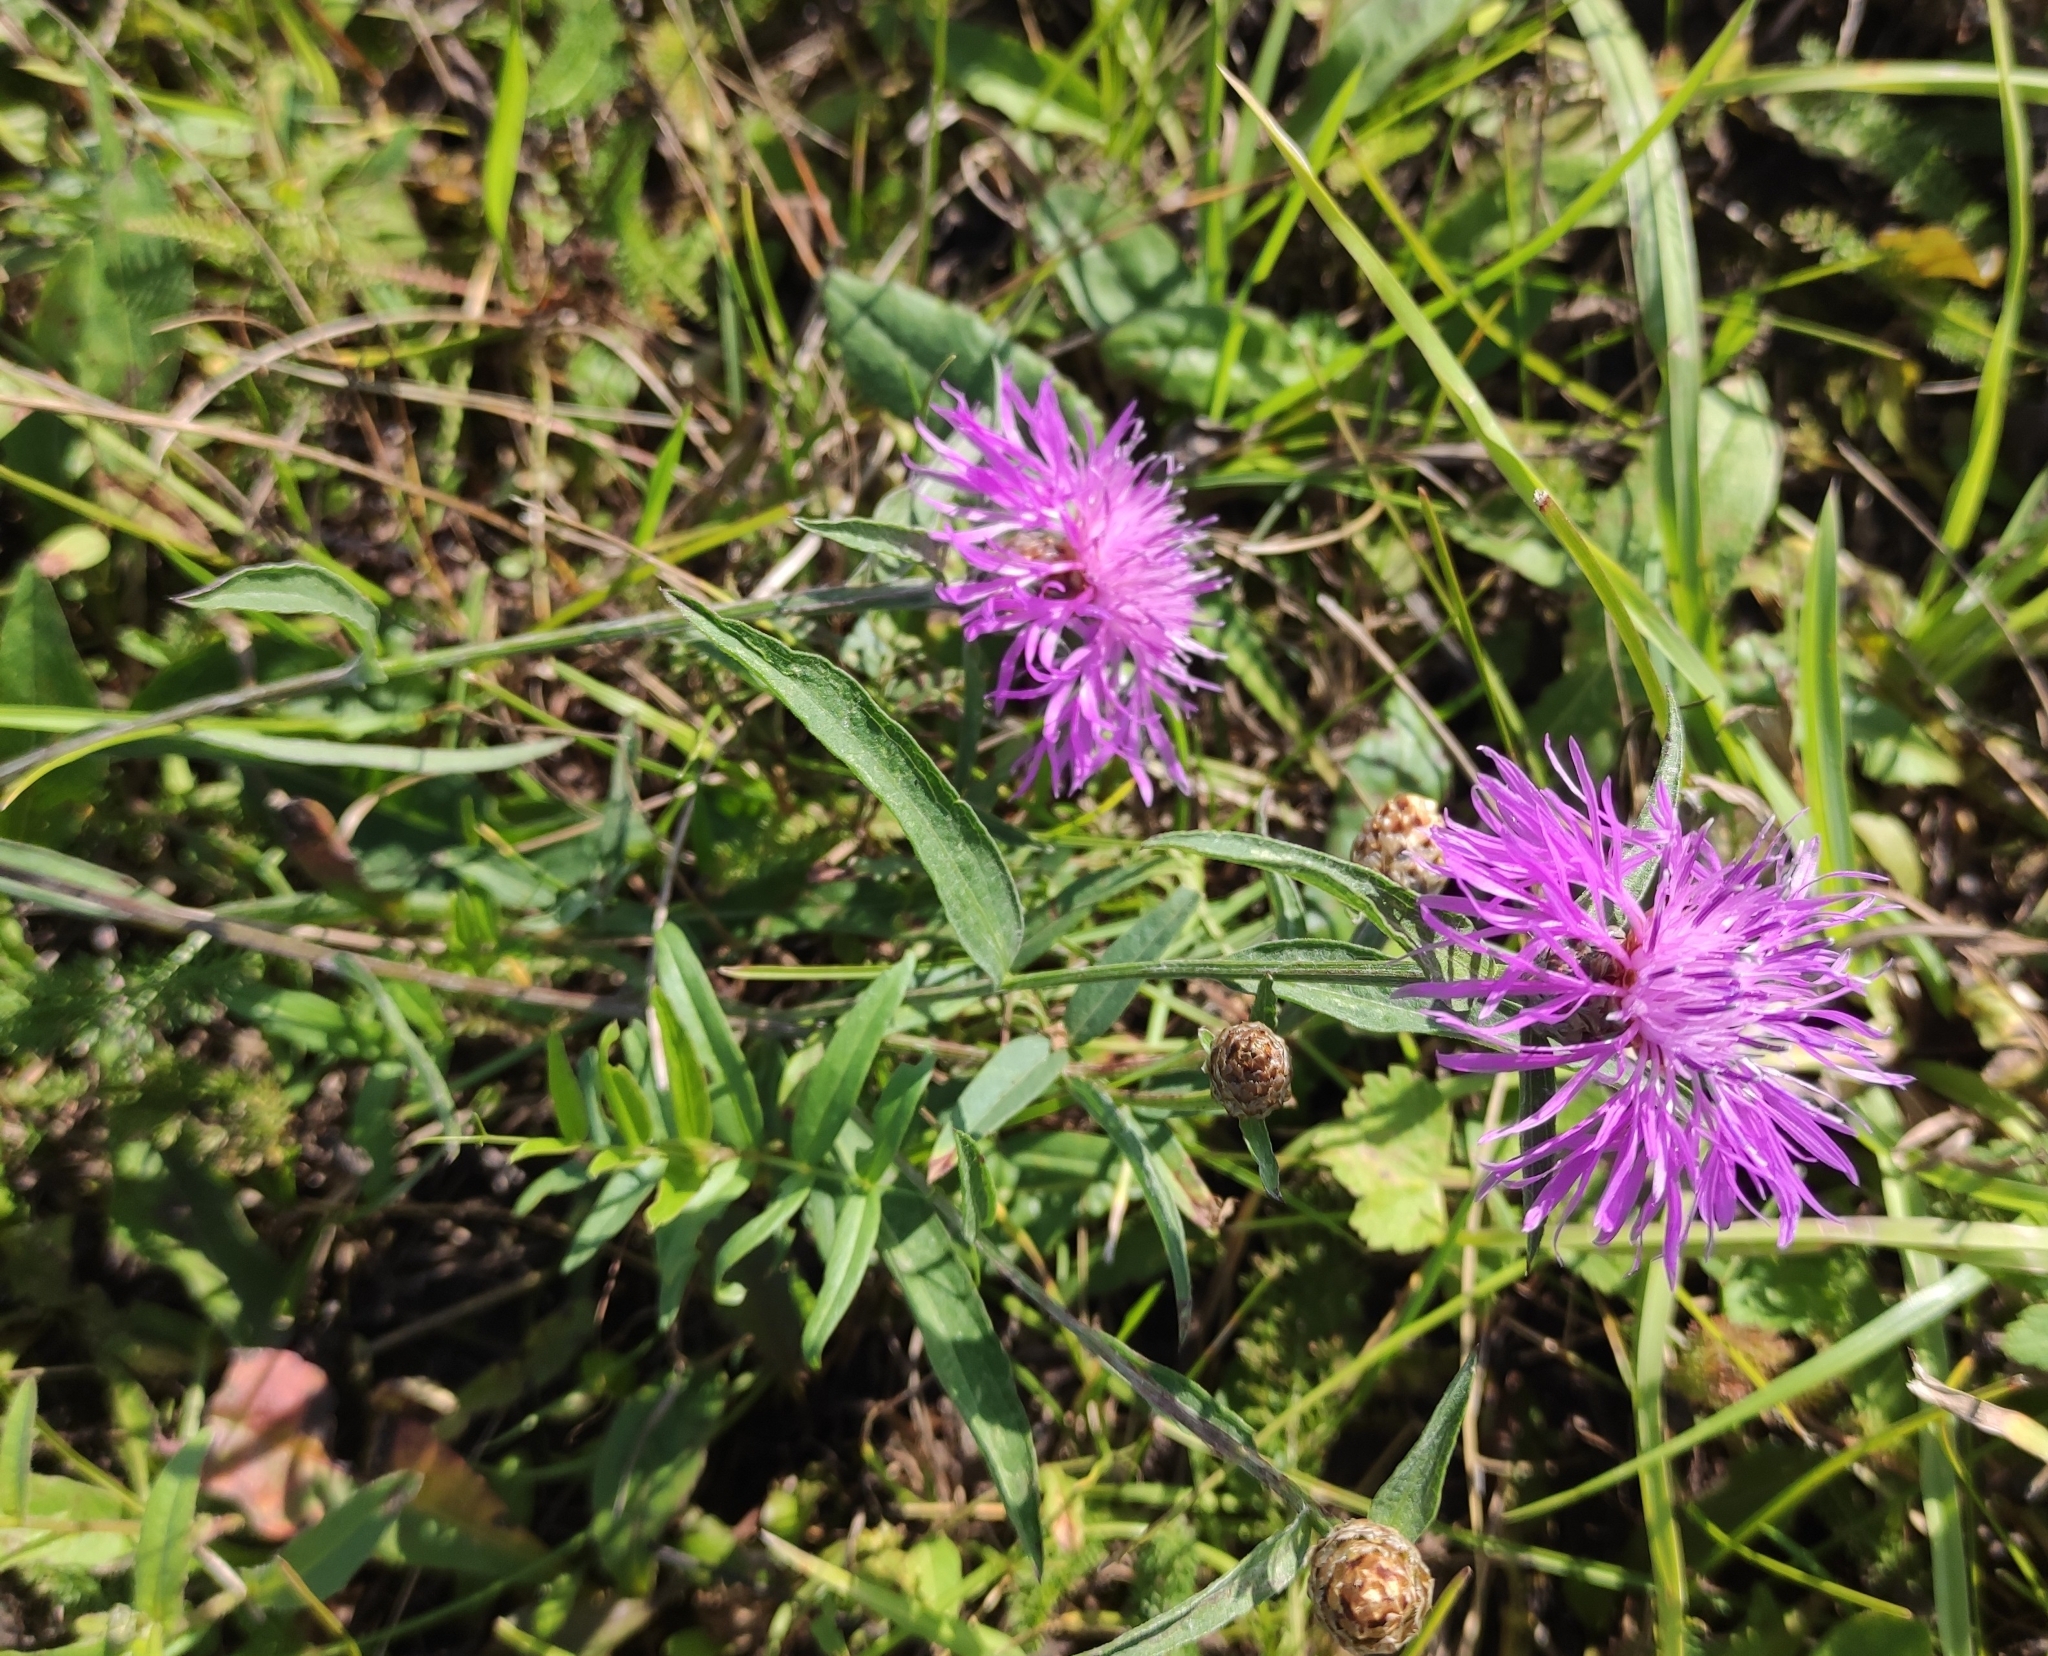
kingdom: Plantae
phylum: Tracheophyta
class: Magnoliopsida
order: Asterales
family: Asteraceae
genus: Centaurea
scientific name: Centaurea jacea
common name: Brown knapweed
